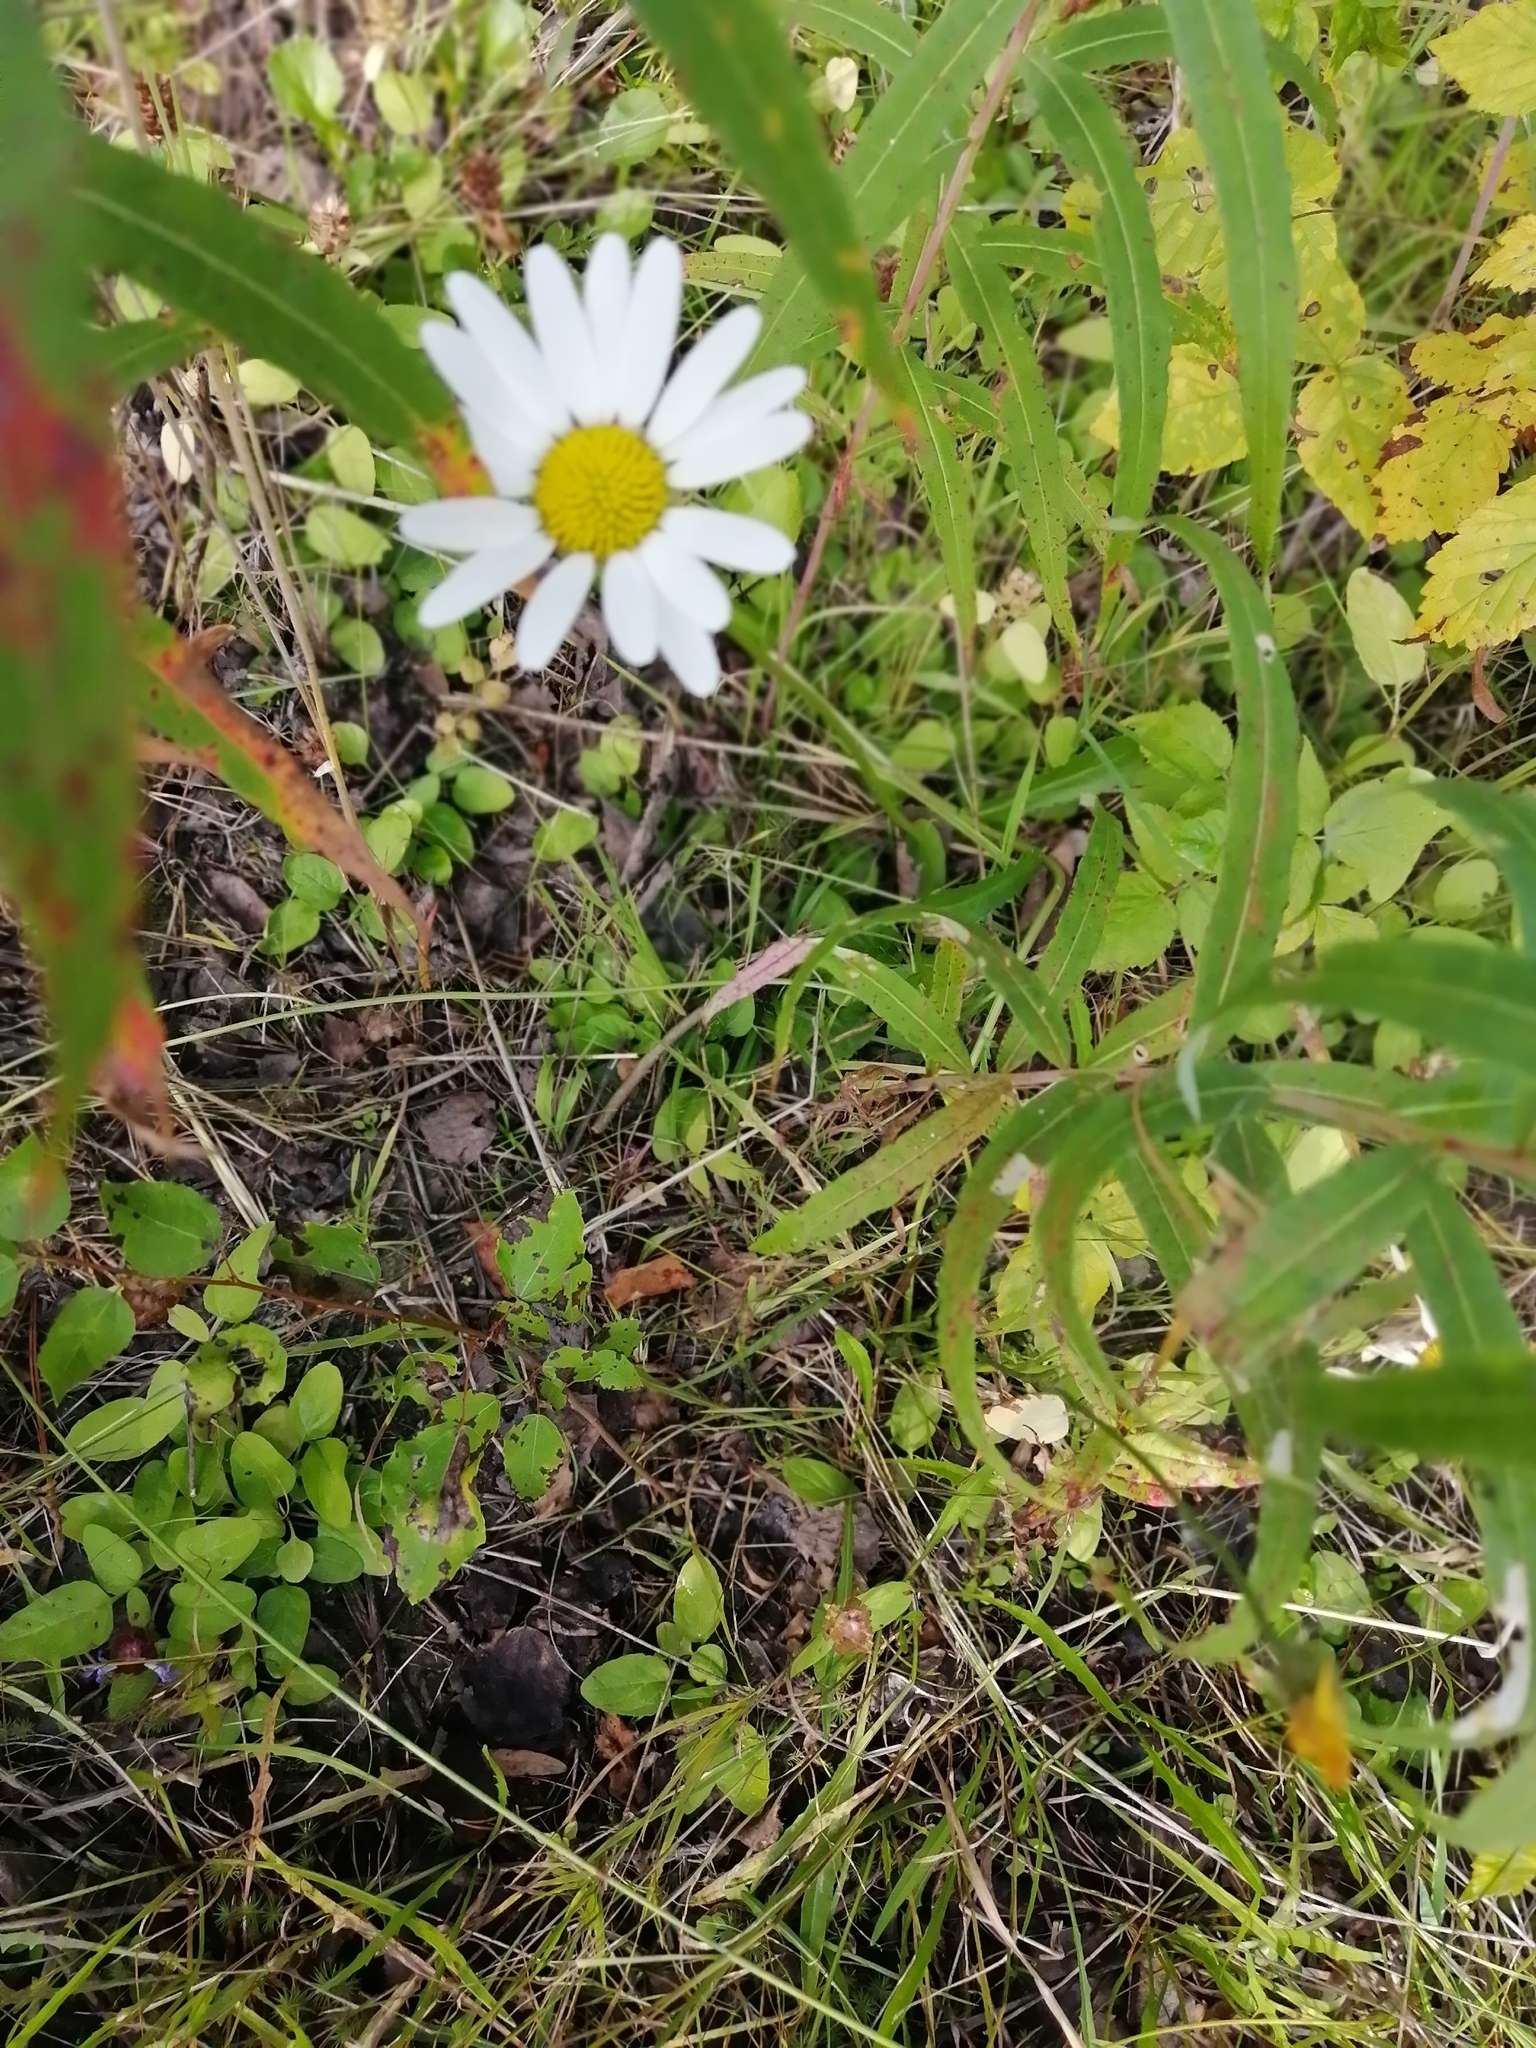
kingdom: Plantae
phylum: Tracheophyta
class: Magnoliopsida
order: Asterales
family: Asteraceae
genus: Leucanthemum
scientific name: Leucanthemum ircutianum
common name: Daisy
